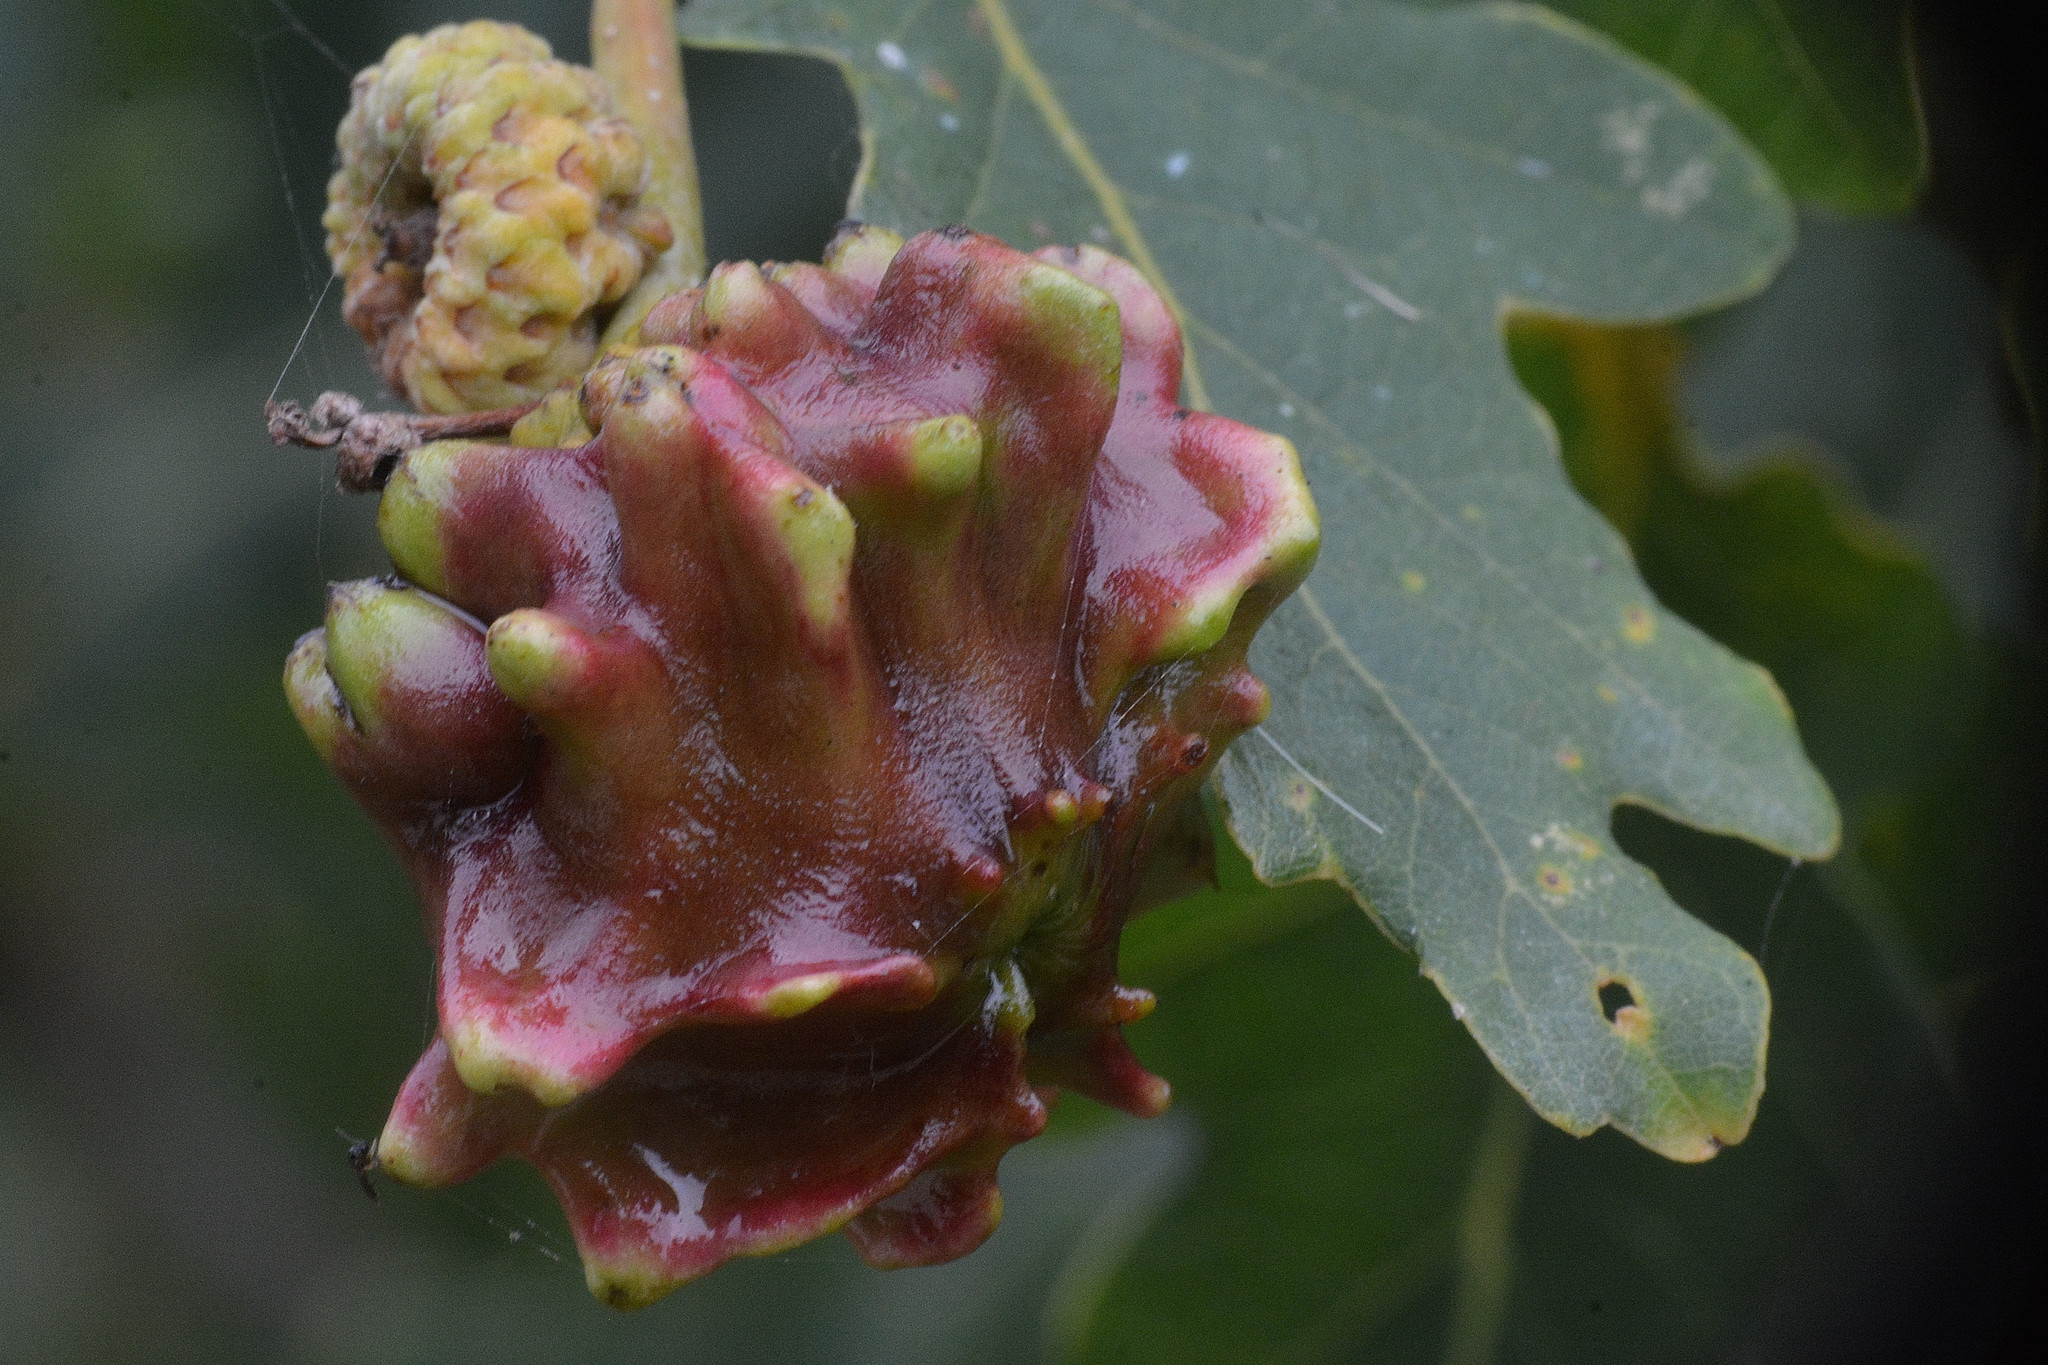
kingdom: Animalia
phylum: Arthropoda
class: Insecta
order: Hymenoptera
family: Cynipidae
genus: Andricus
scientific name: Andricus quercuscalicis
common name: Knopper gall
